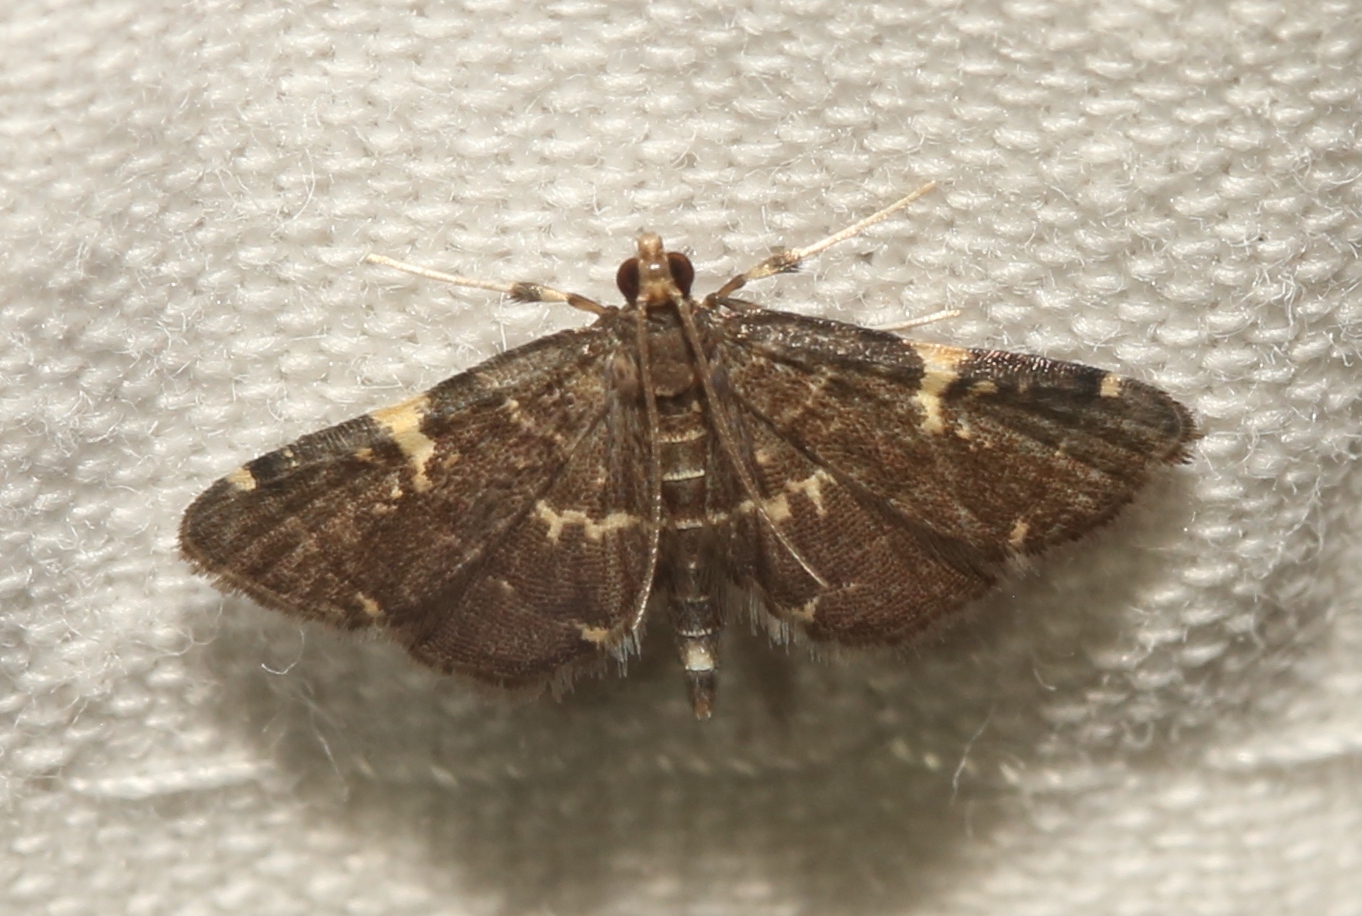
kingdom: Animalia
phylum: Arthropoda
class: Insecta
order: Lepidoptera
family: Crambidae
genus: Anageshna
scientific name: Anageshna primordialis
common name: Yellow-spotted webworm moth
